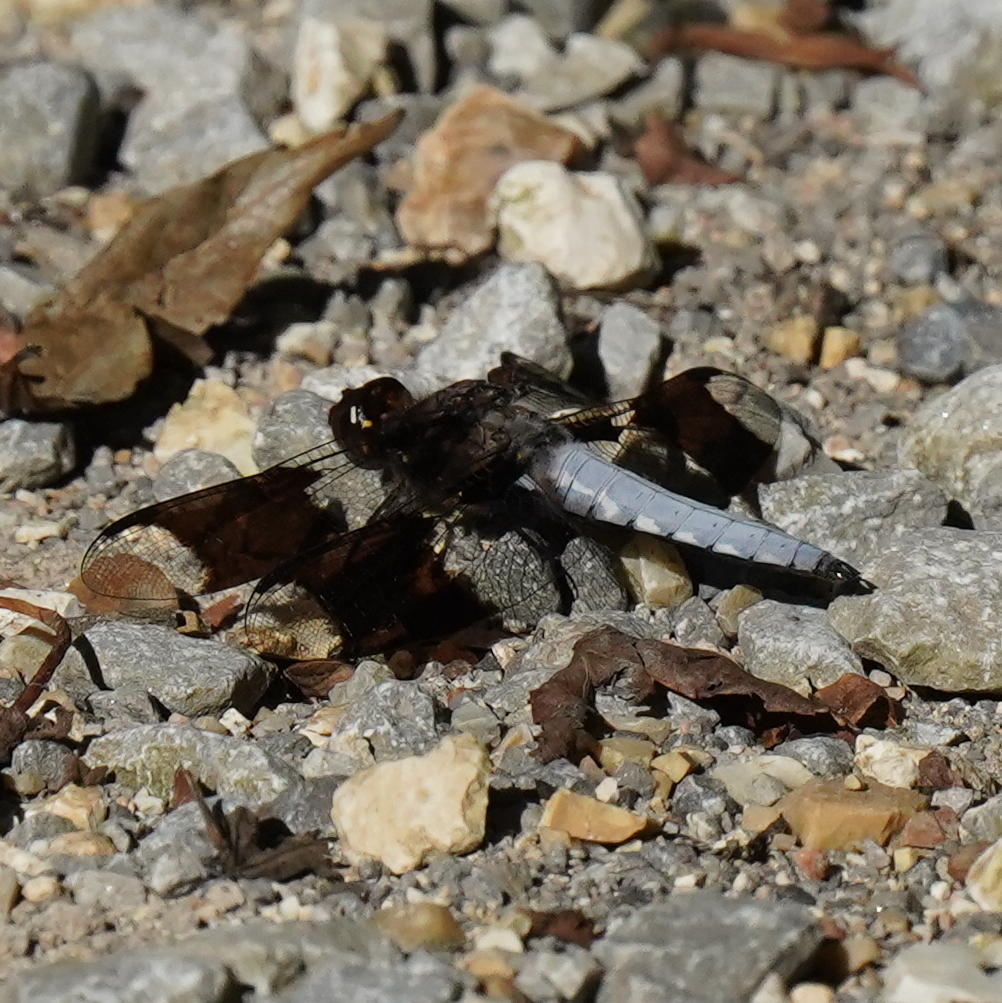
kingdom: Animalia
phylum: Arthropoda
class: Insecta
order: Odonata
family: Libellulidae
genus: Plathemis
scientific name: Plathemis lydia
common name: Common whitetail
